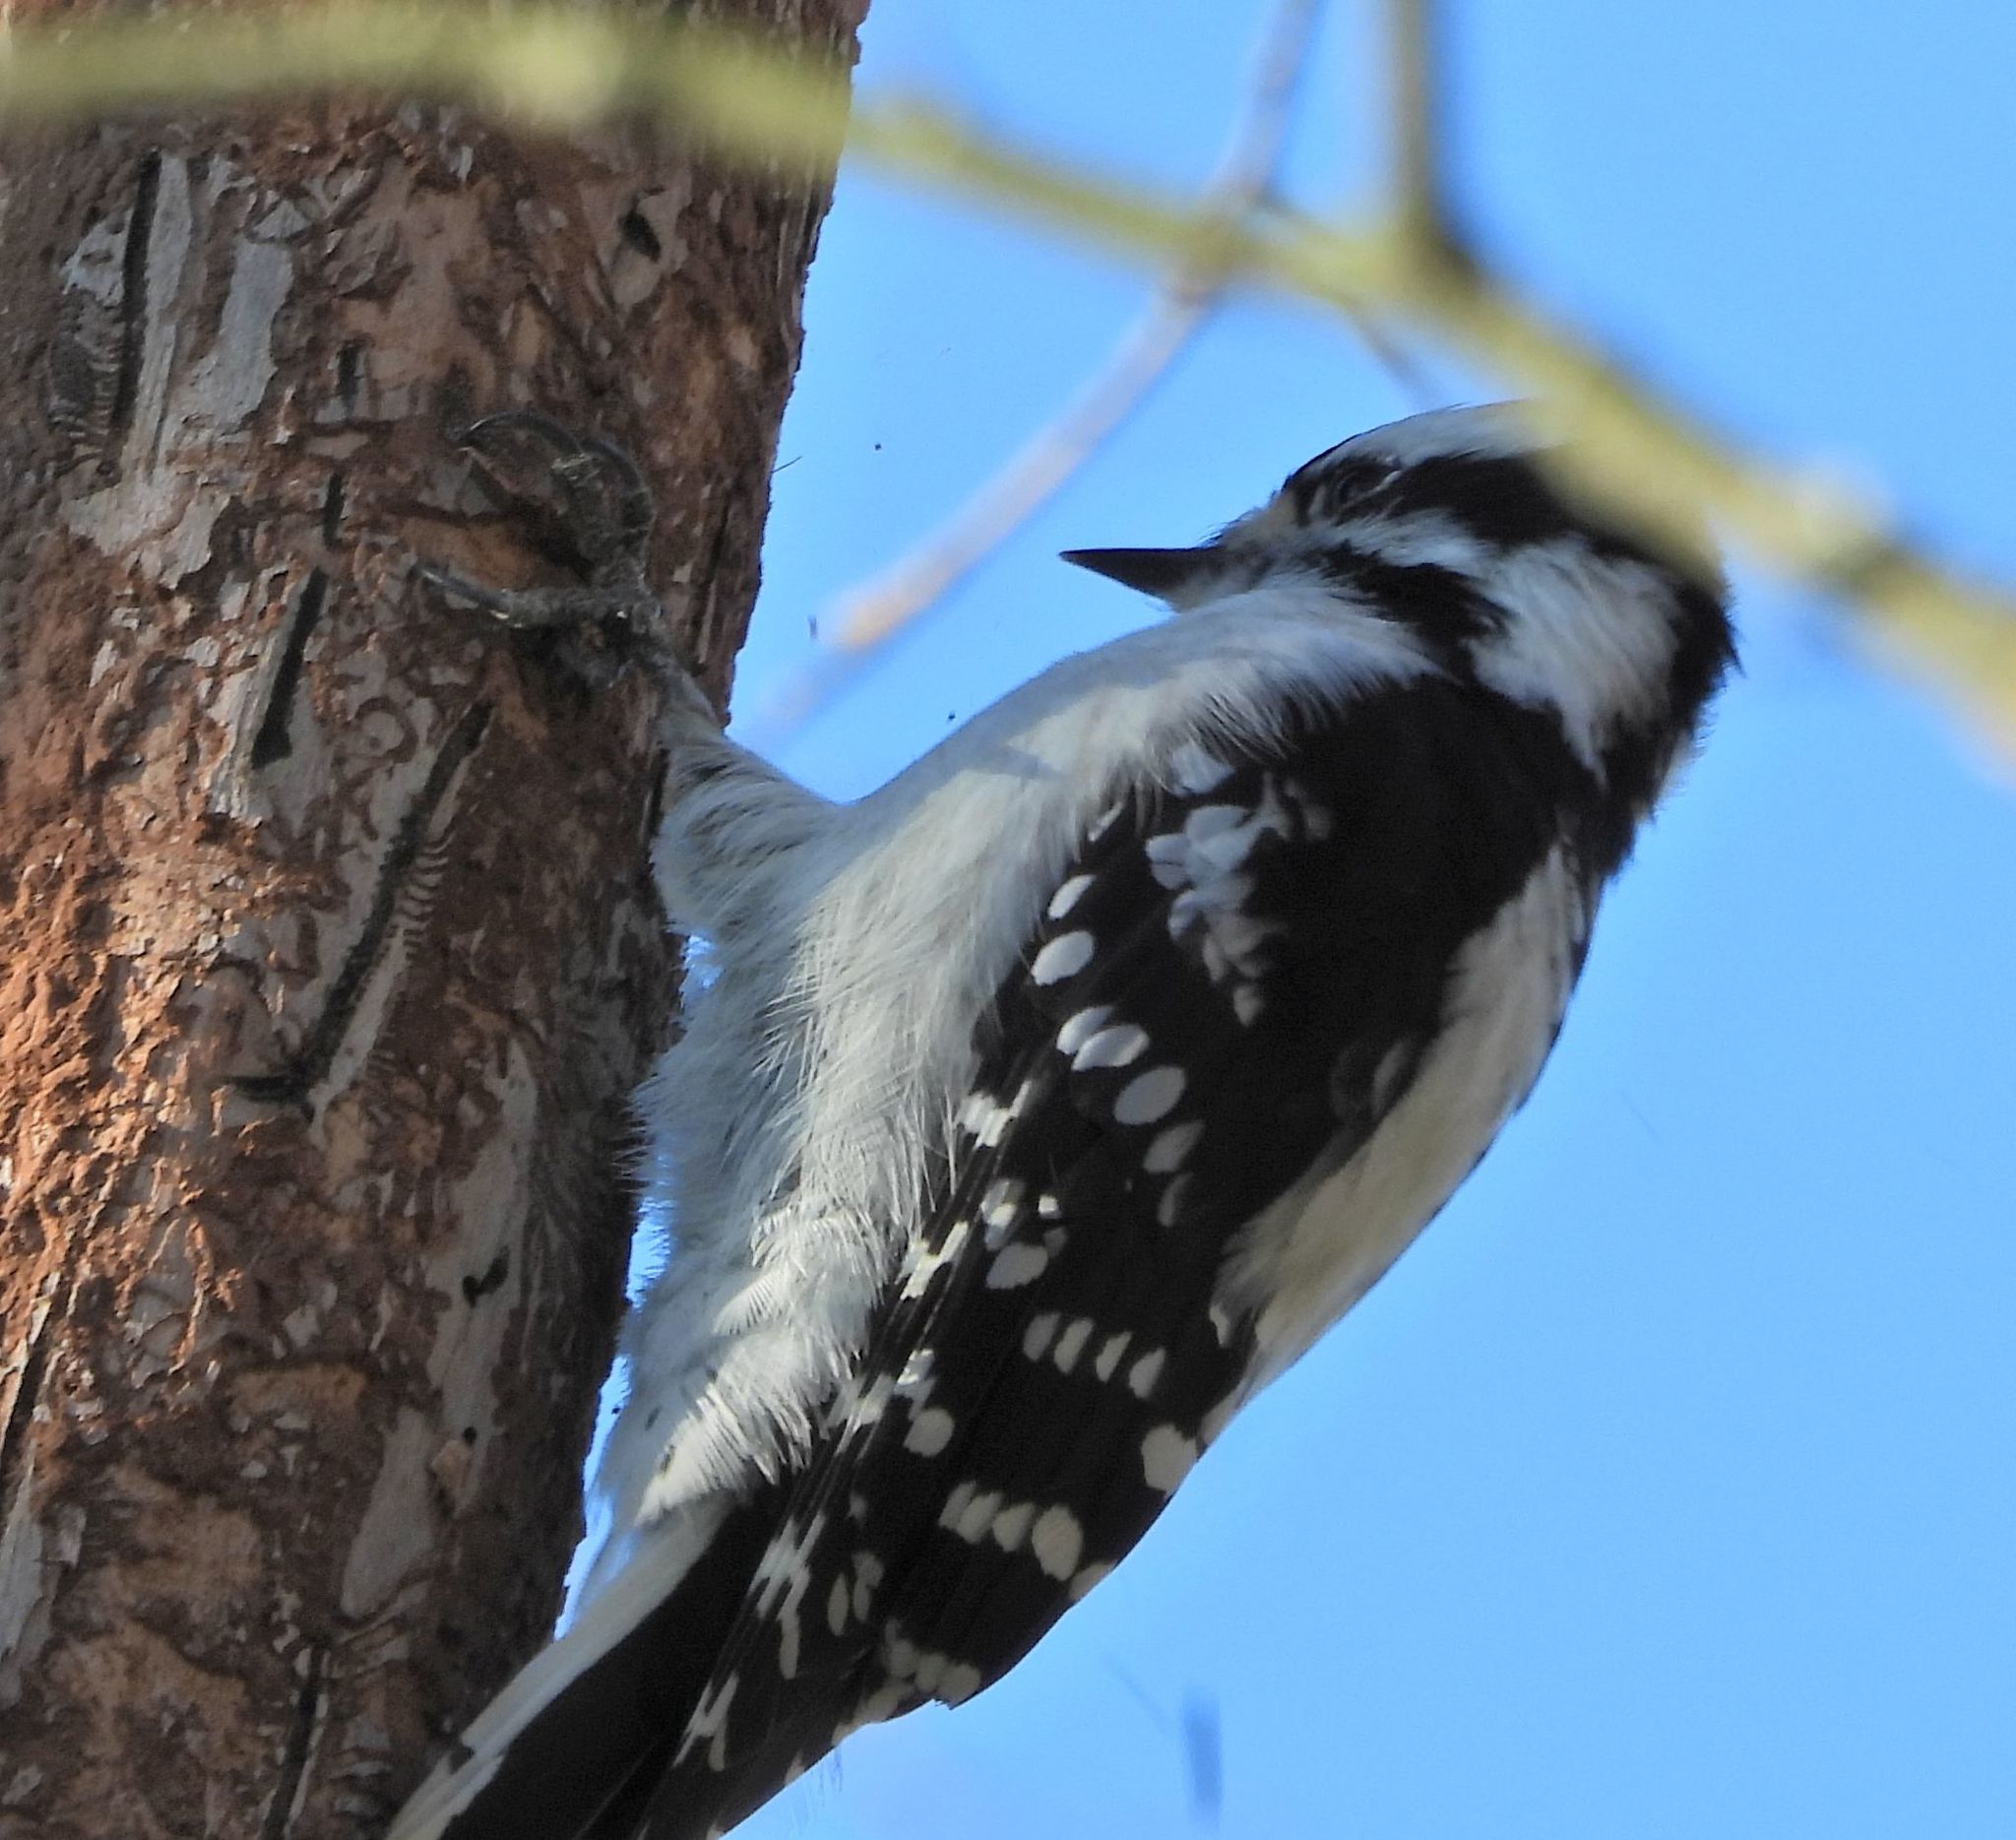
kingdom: Animalia
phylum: Chordata
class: Aves
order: Piciformes
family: Picidae
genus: Dryobates
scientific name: Dryobates pubescens
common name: Downy woodpecker
